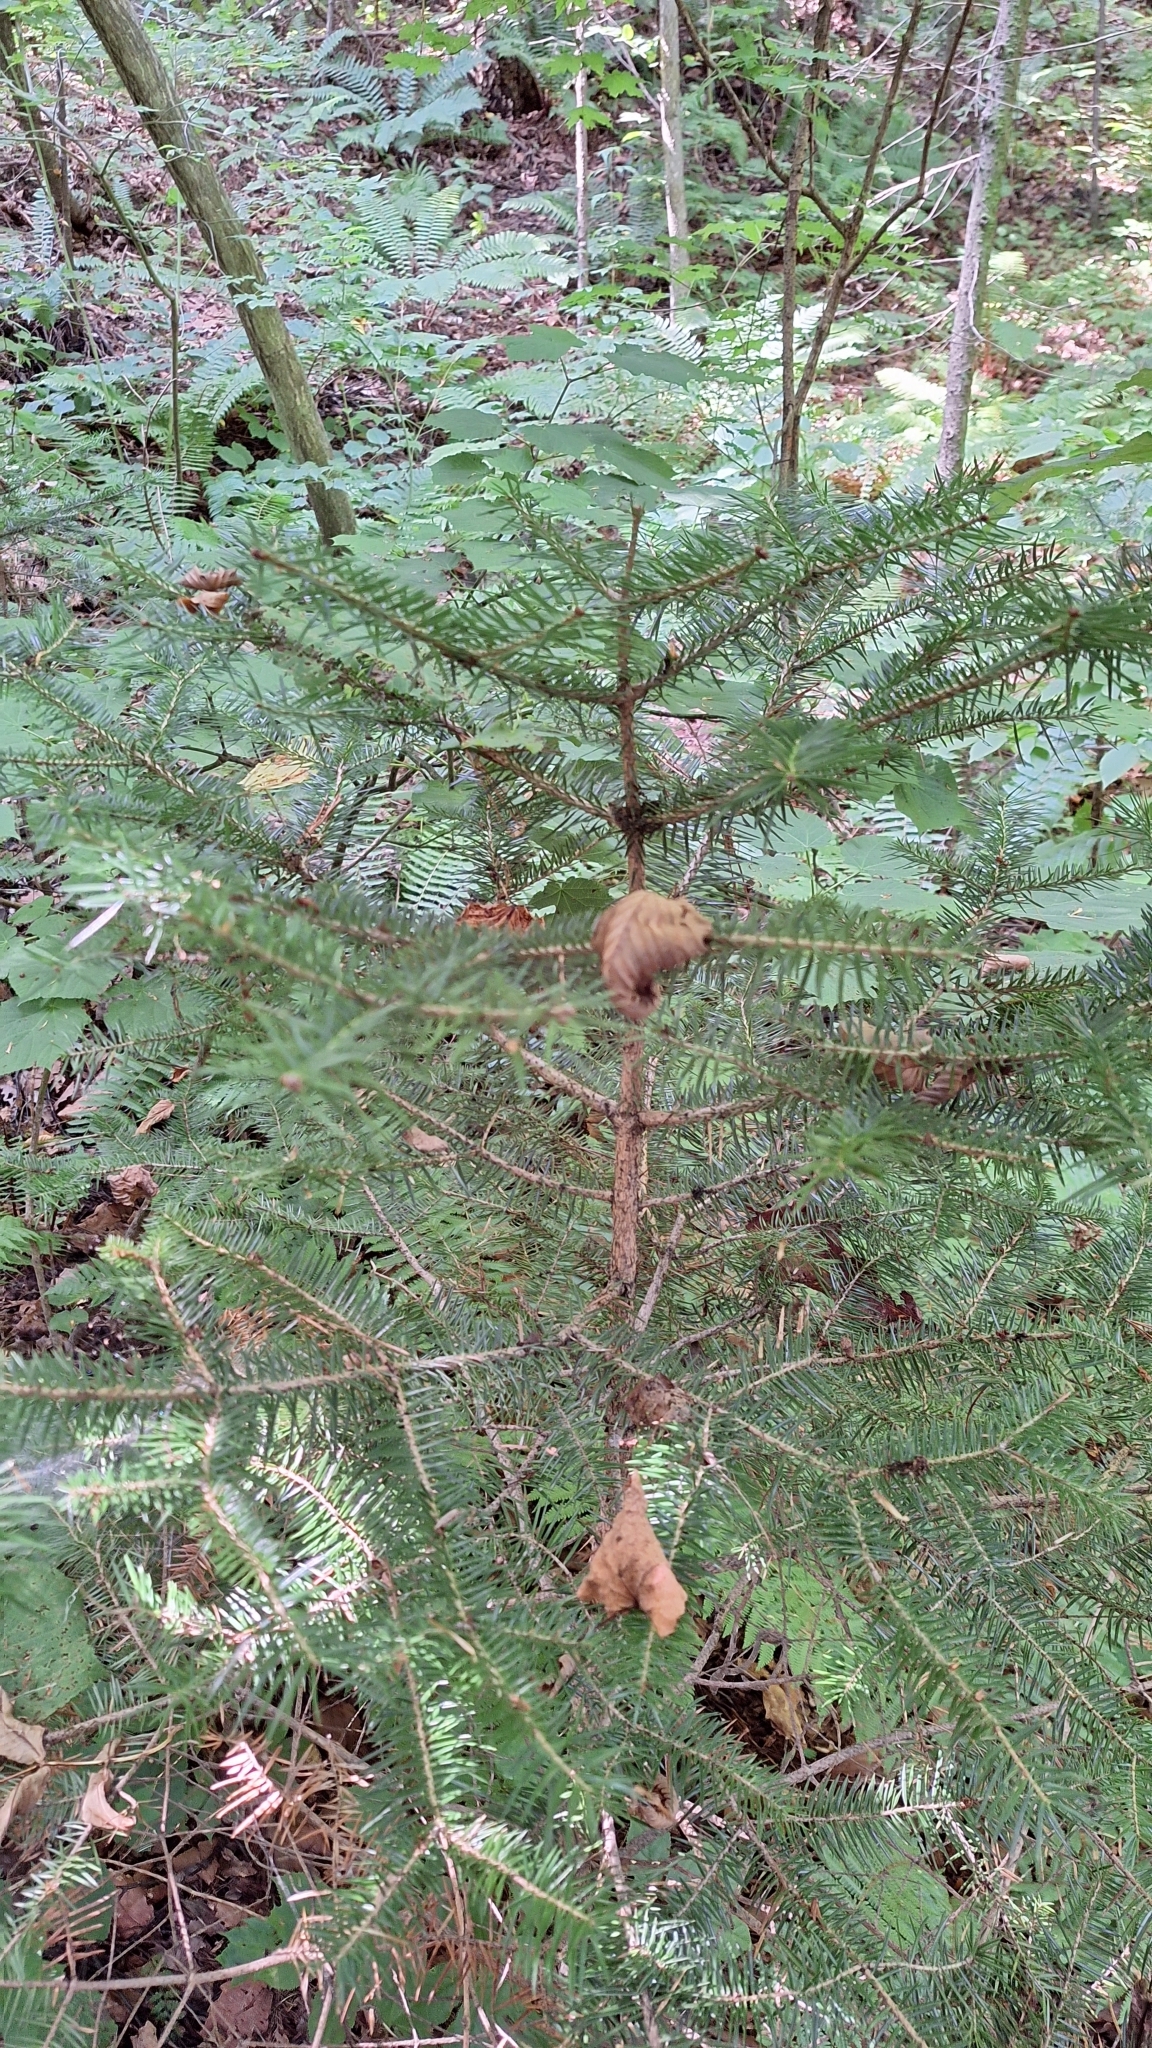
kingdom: Plantae
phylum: Tracheophyta
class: Pinopsida
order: Pinales
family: Pinaceae
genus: Abies
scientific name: Abies holophylla
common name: Manchurian fir
